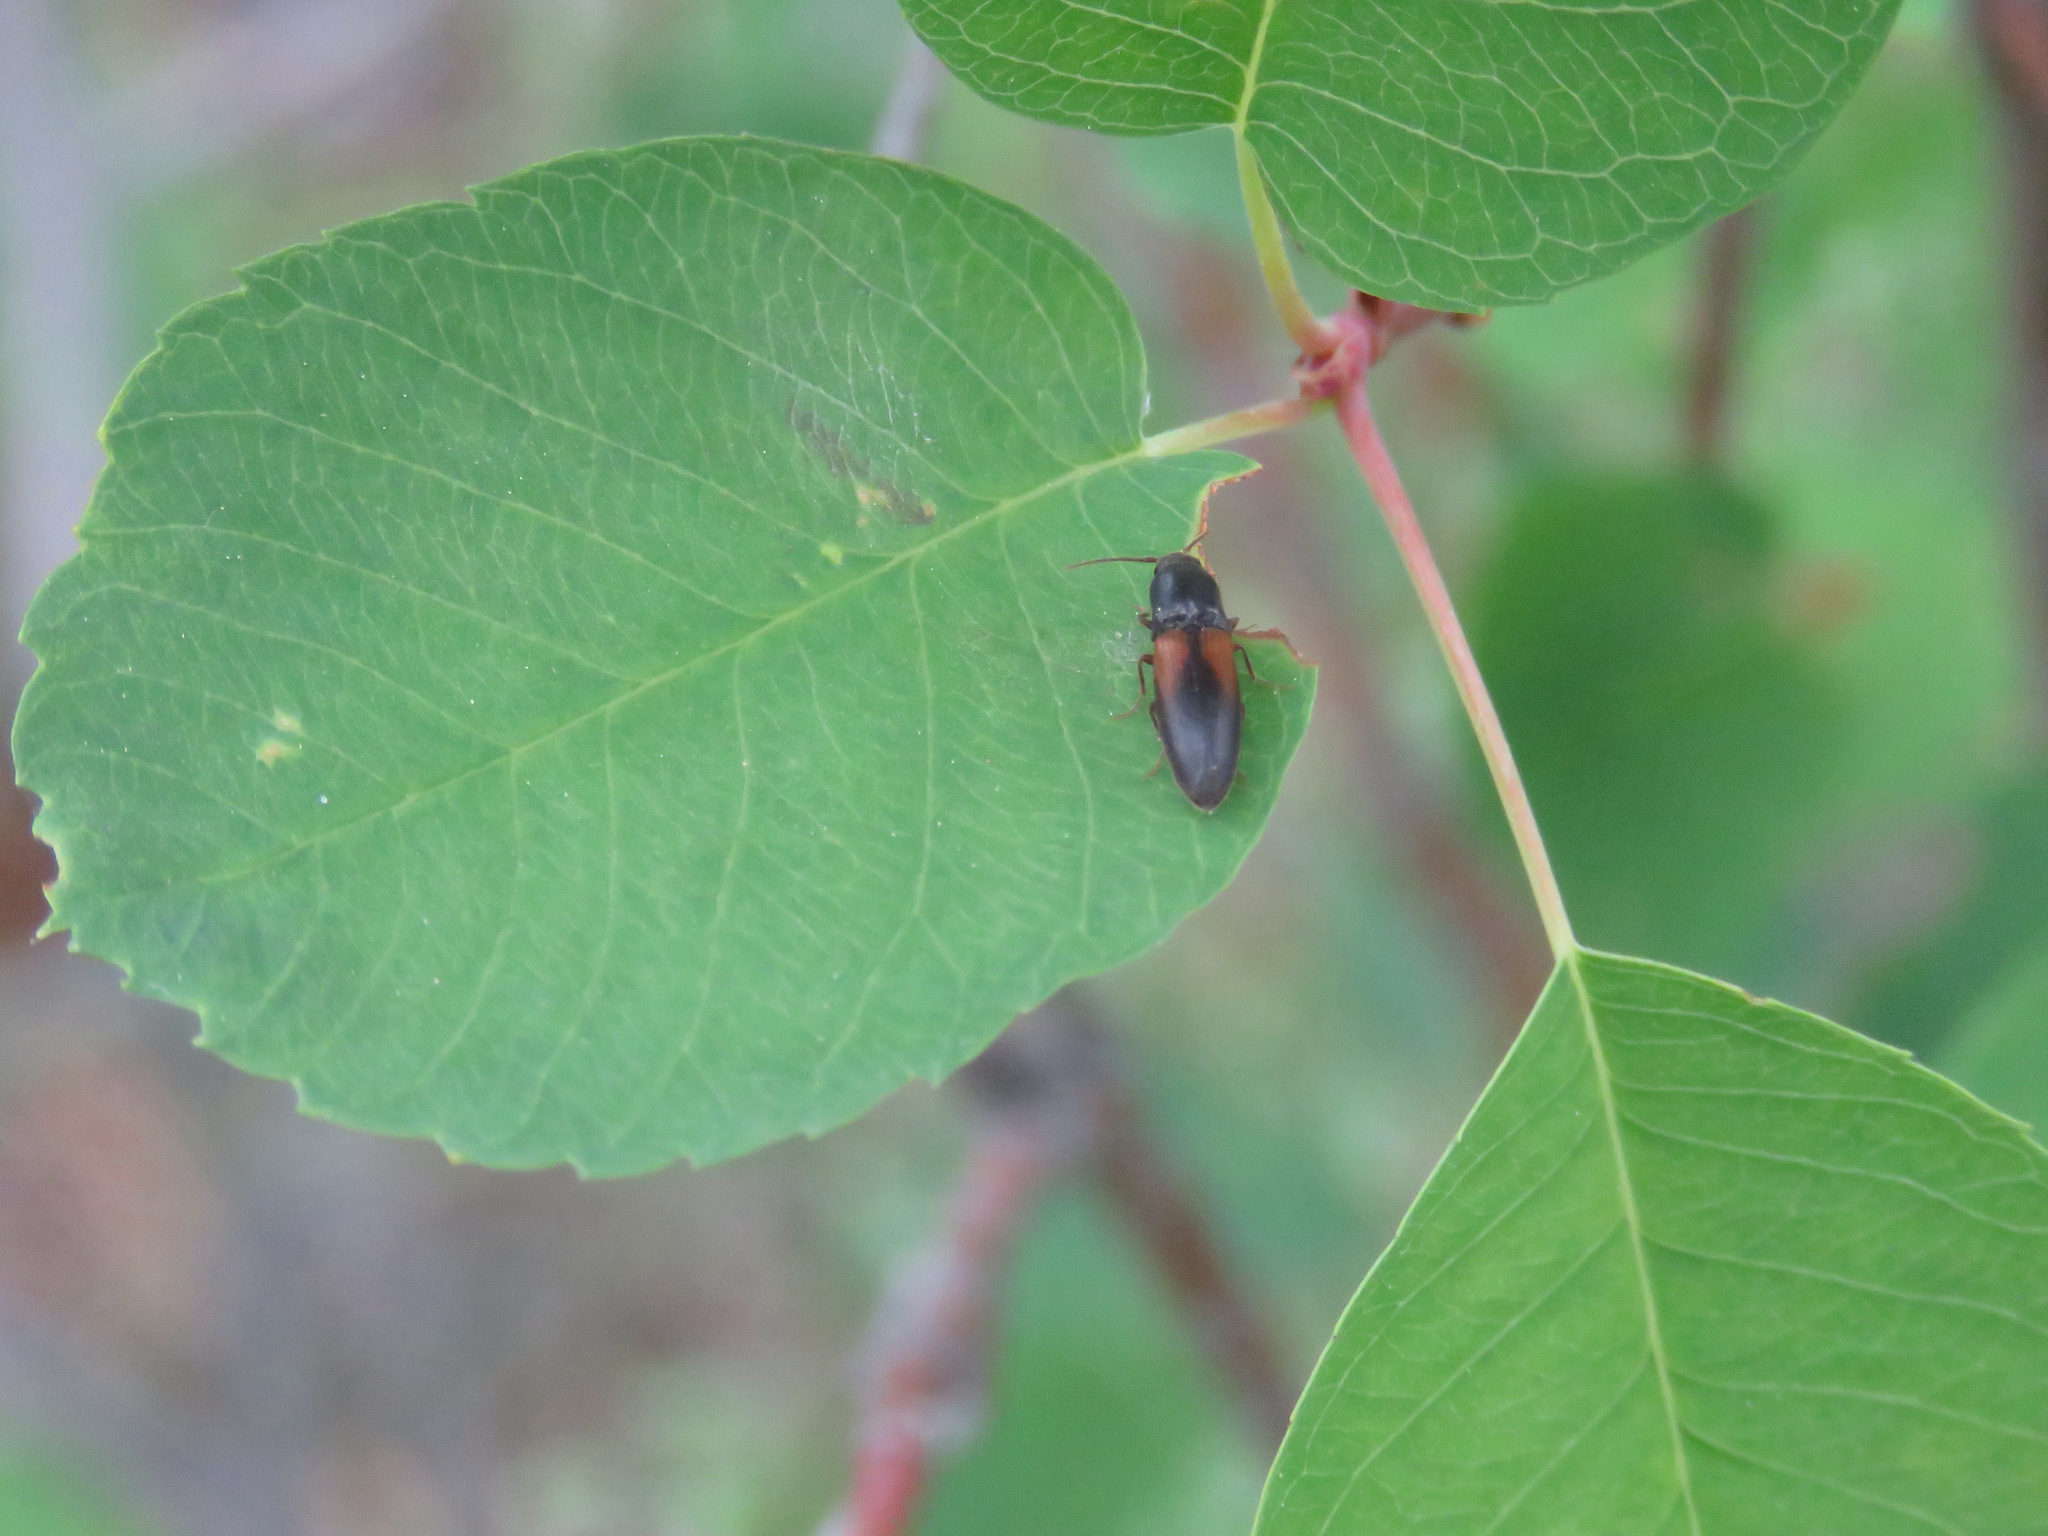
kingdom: Animalia
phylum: Arthropoda
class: Insecta
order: Coleoptera
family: Elateridae
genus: Agriotes
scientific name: Agriotes thevenetii
